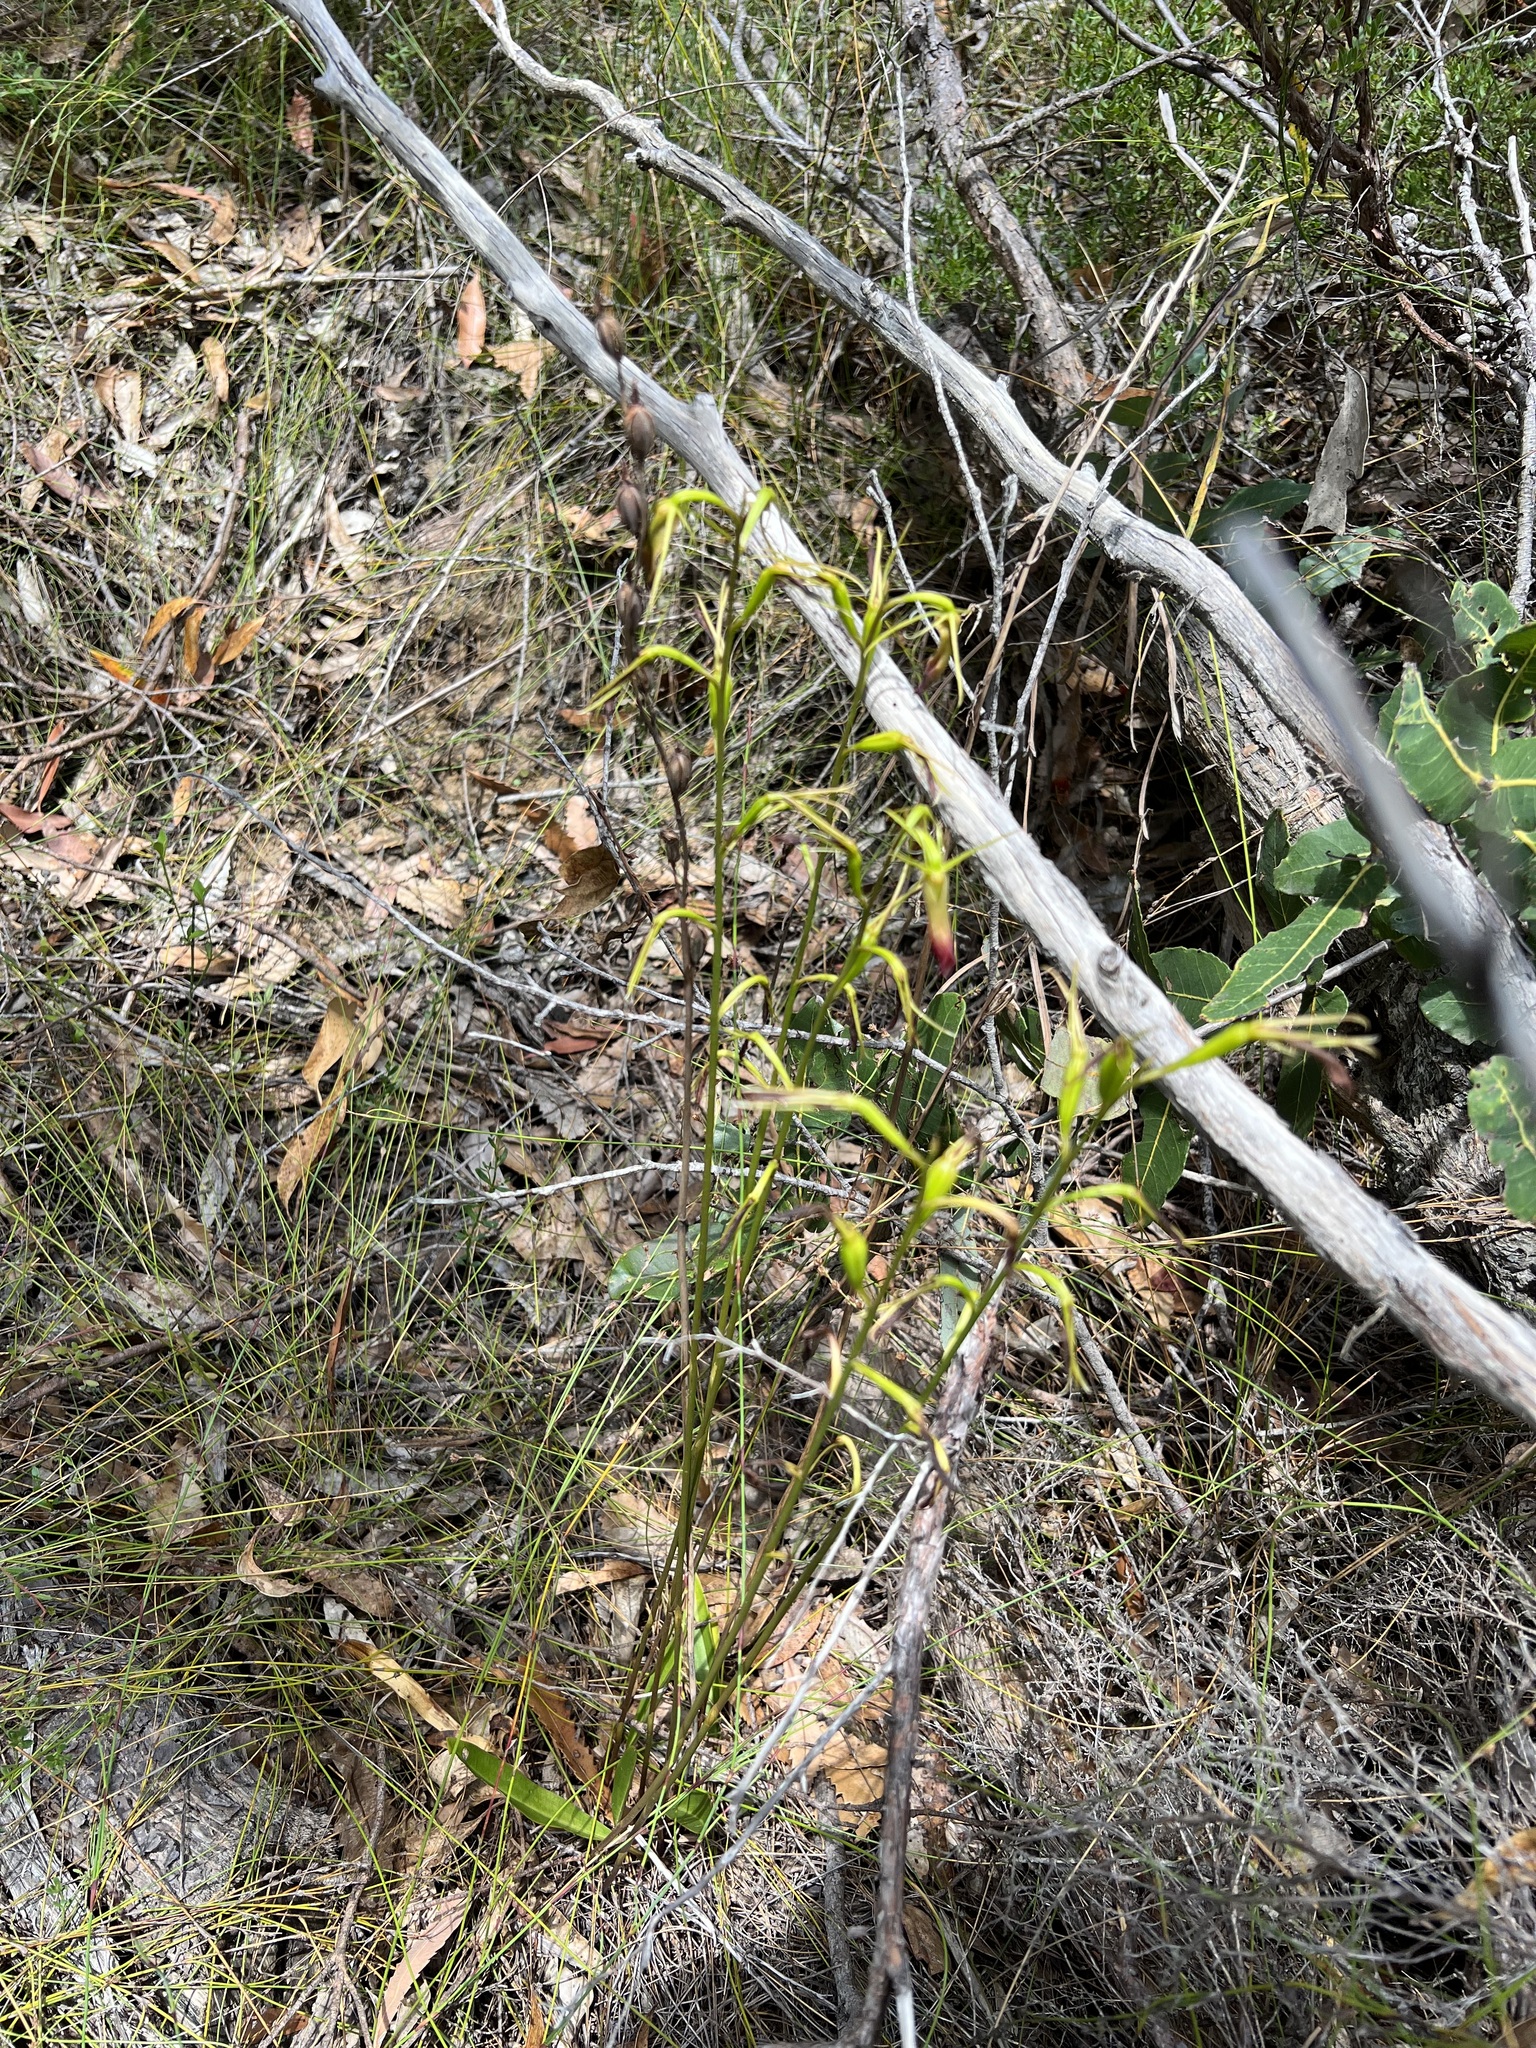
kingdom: Plantae
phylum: Tracheophyta
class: Liliopsida
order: Asparagales
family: Orchidaceae
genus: Cryptostylis
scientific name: Cryptostylis subulata
